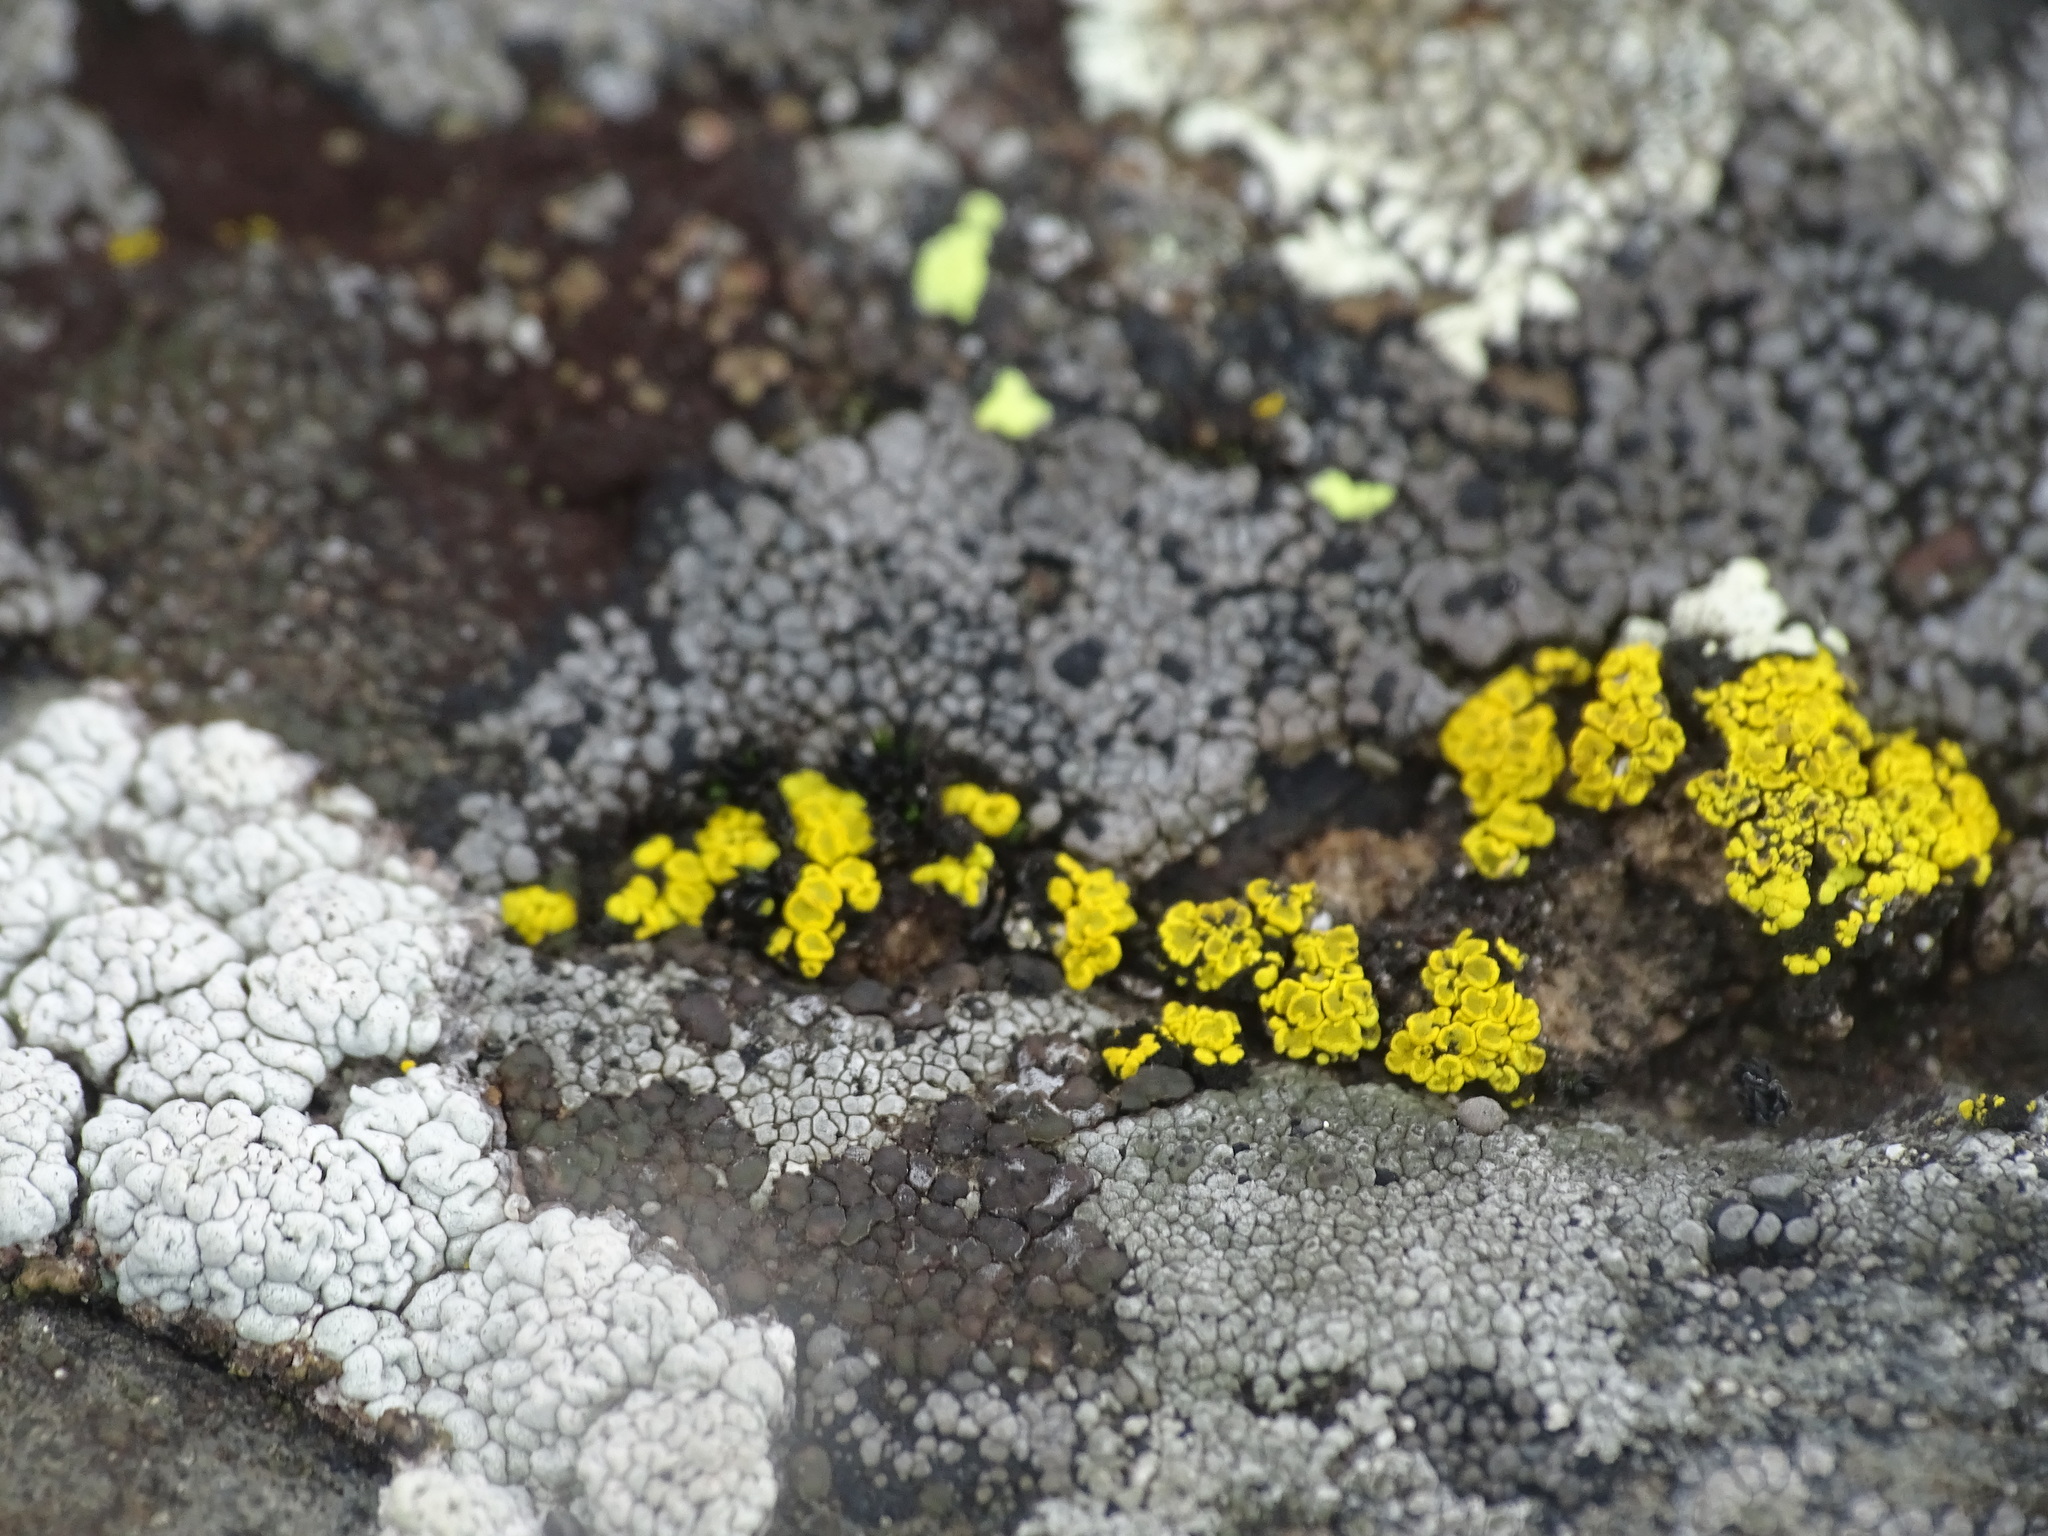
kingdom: Fungi
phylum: Ascomycota
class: Candelariomycetes
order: Candelariales
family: Candelariaceae
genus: Candelariella
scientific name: Candelariella vitellina
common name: Common goldspeck
